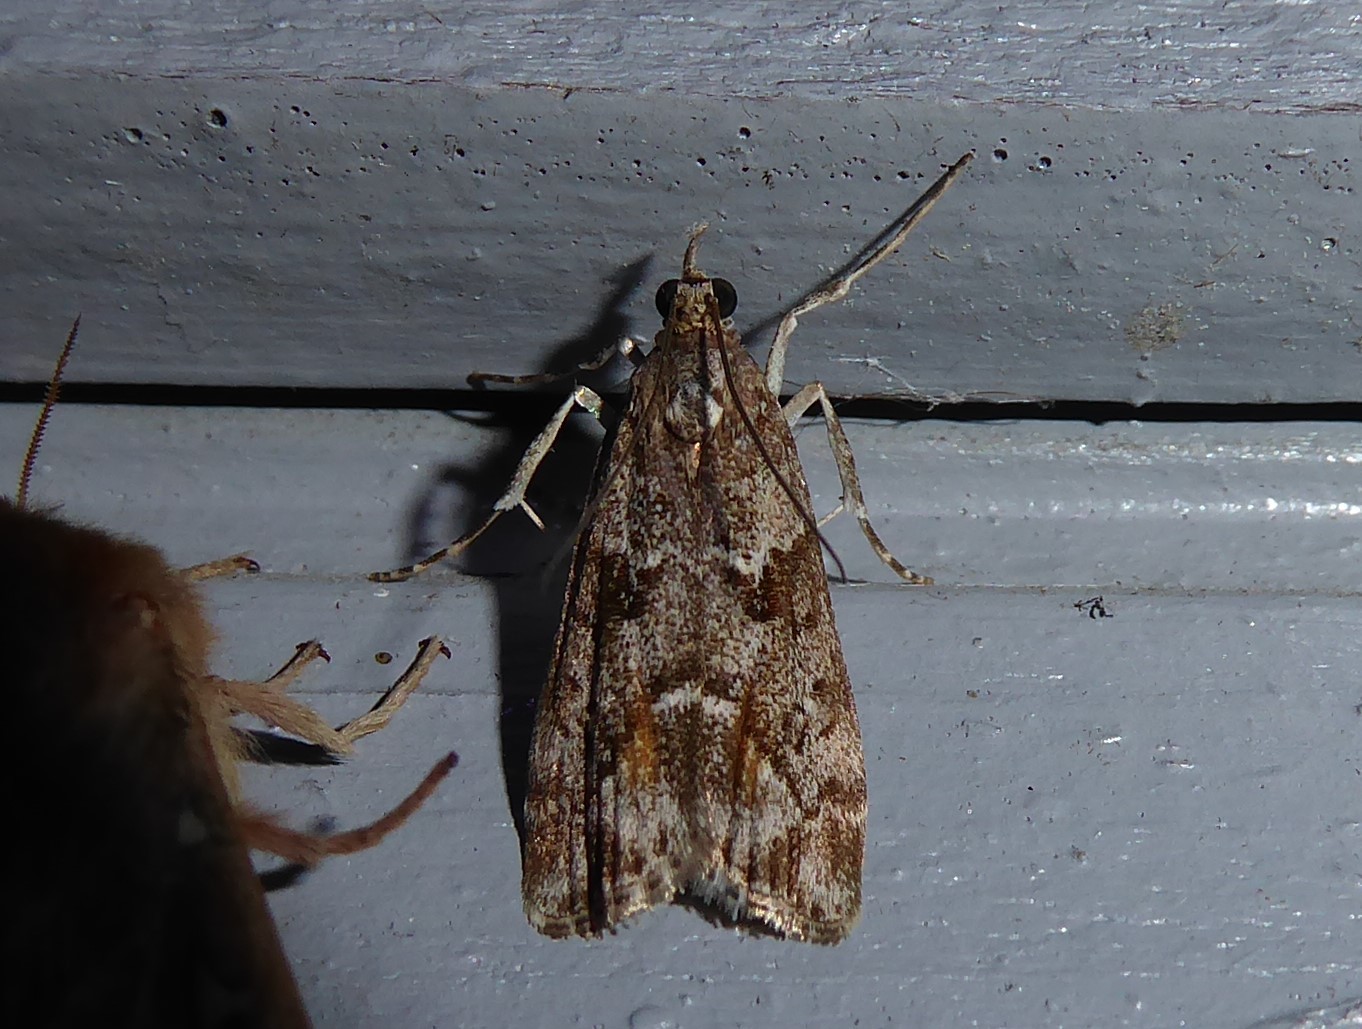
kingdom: Animalia
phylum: Arthropoda
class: Insecta
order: Lepidoptera
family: Crambidae
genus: Eudonia
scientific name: Eudonia submarginalis
